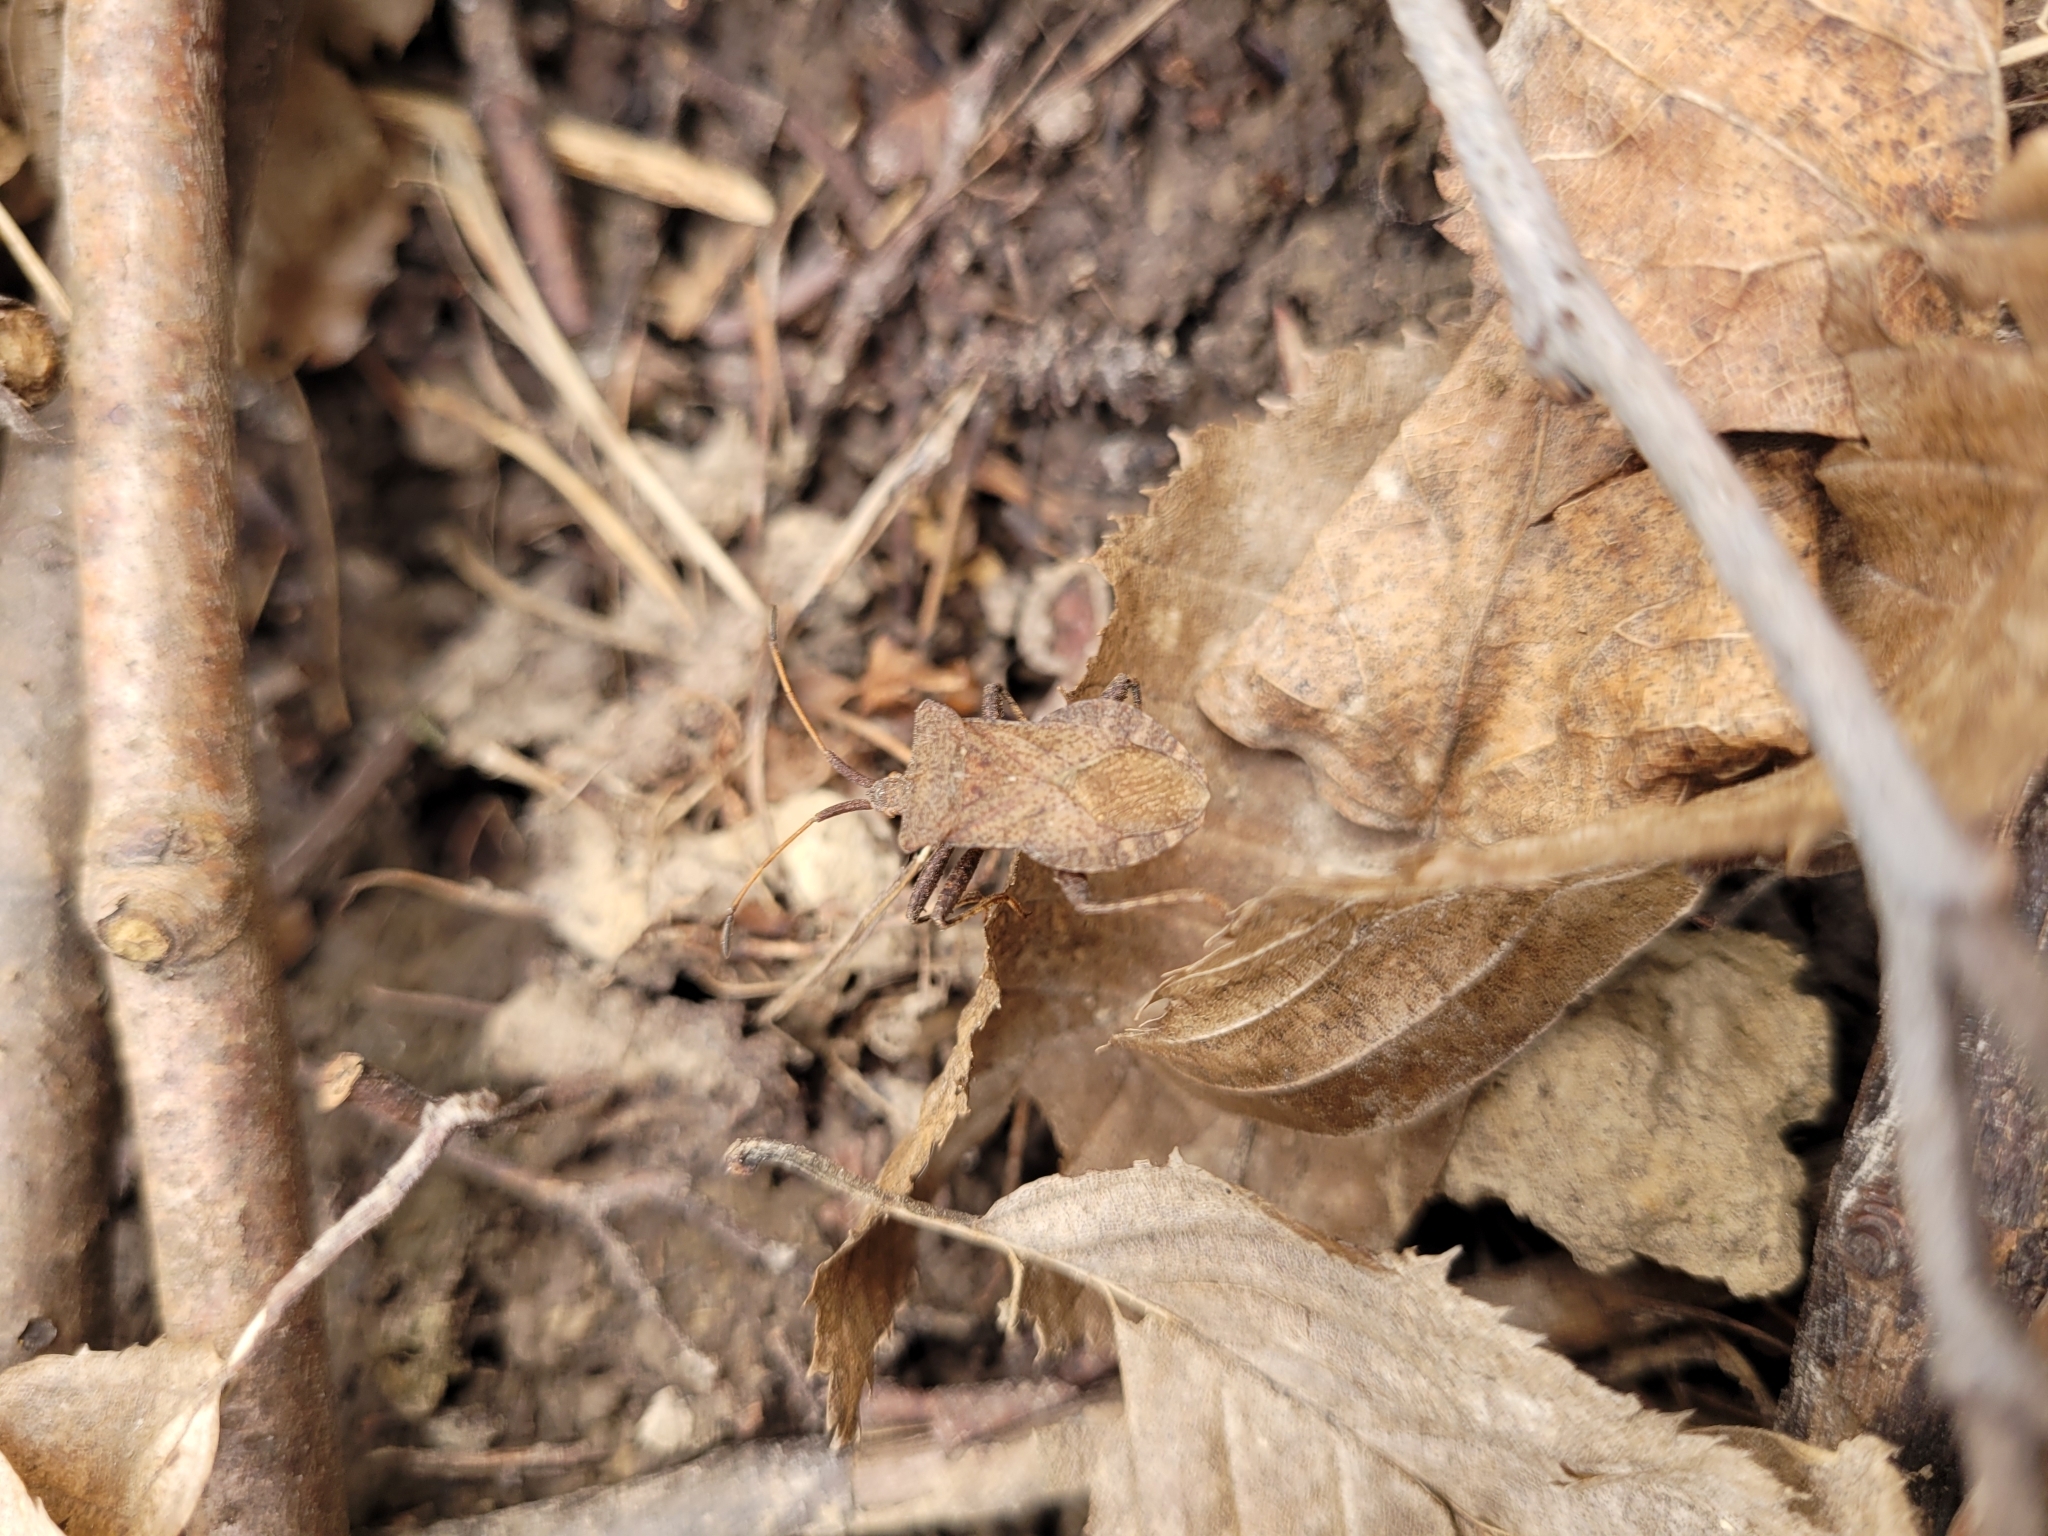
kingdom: Animalia
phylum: Arthropoda
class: Insecta
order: Hemiptera
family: Coreidae
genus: Coreus
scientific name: Coreus marginatus
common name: Dock bug
